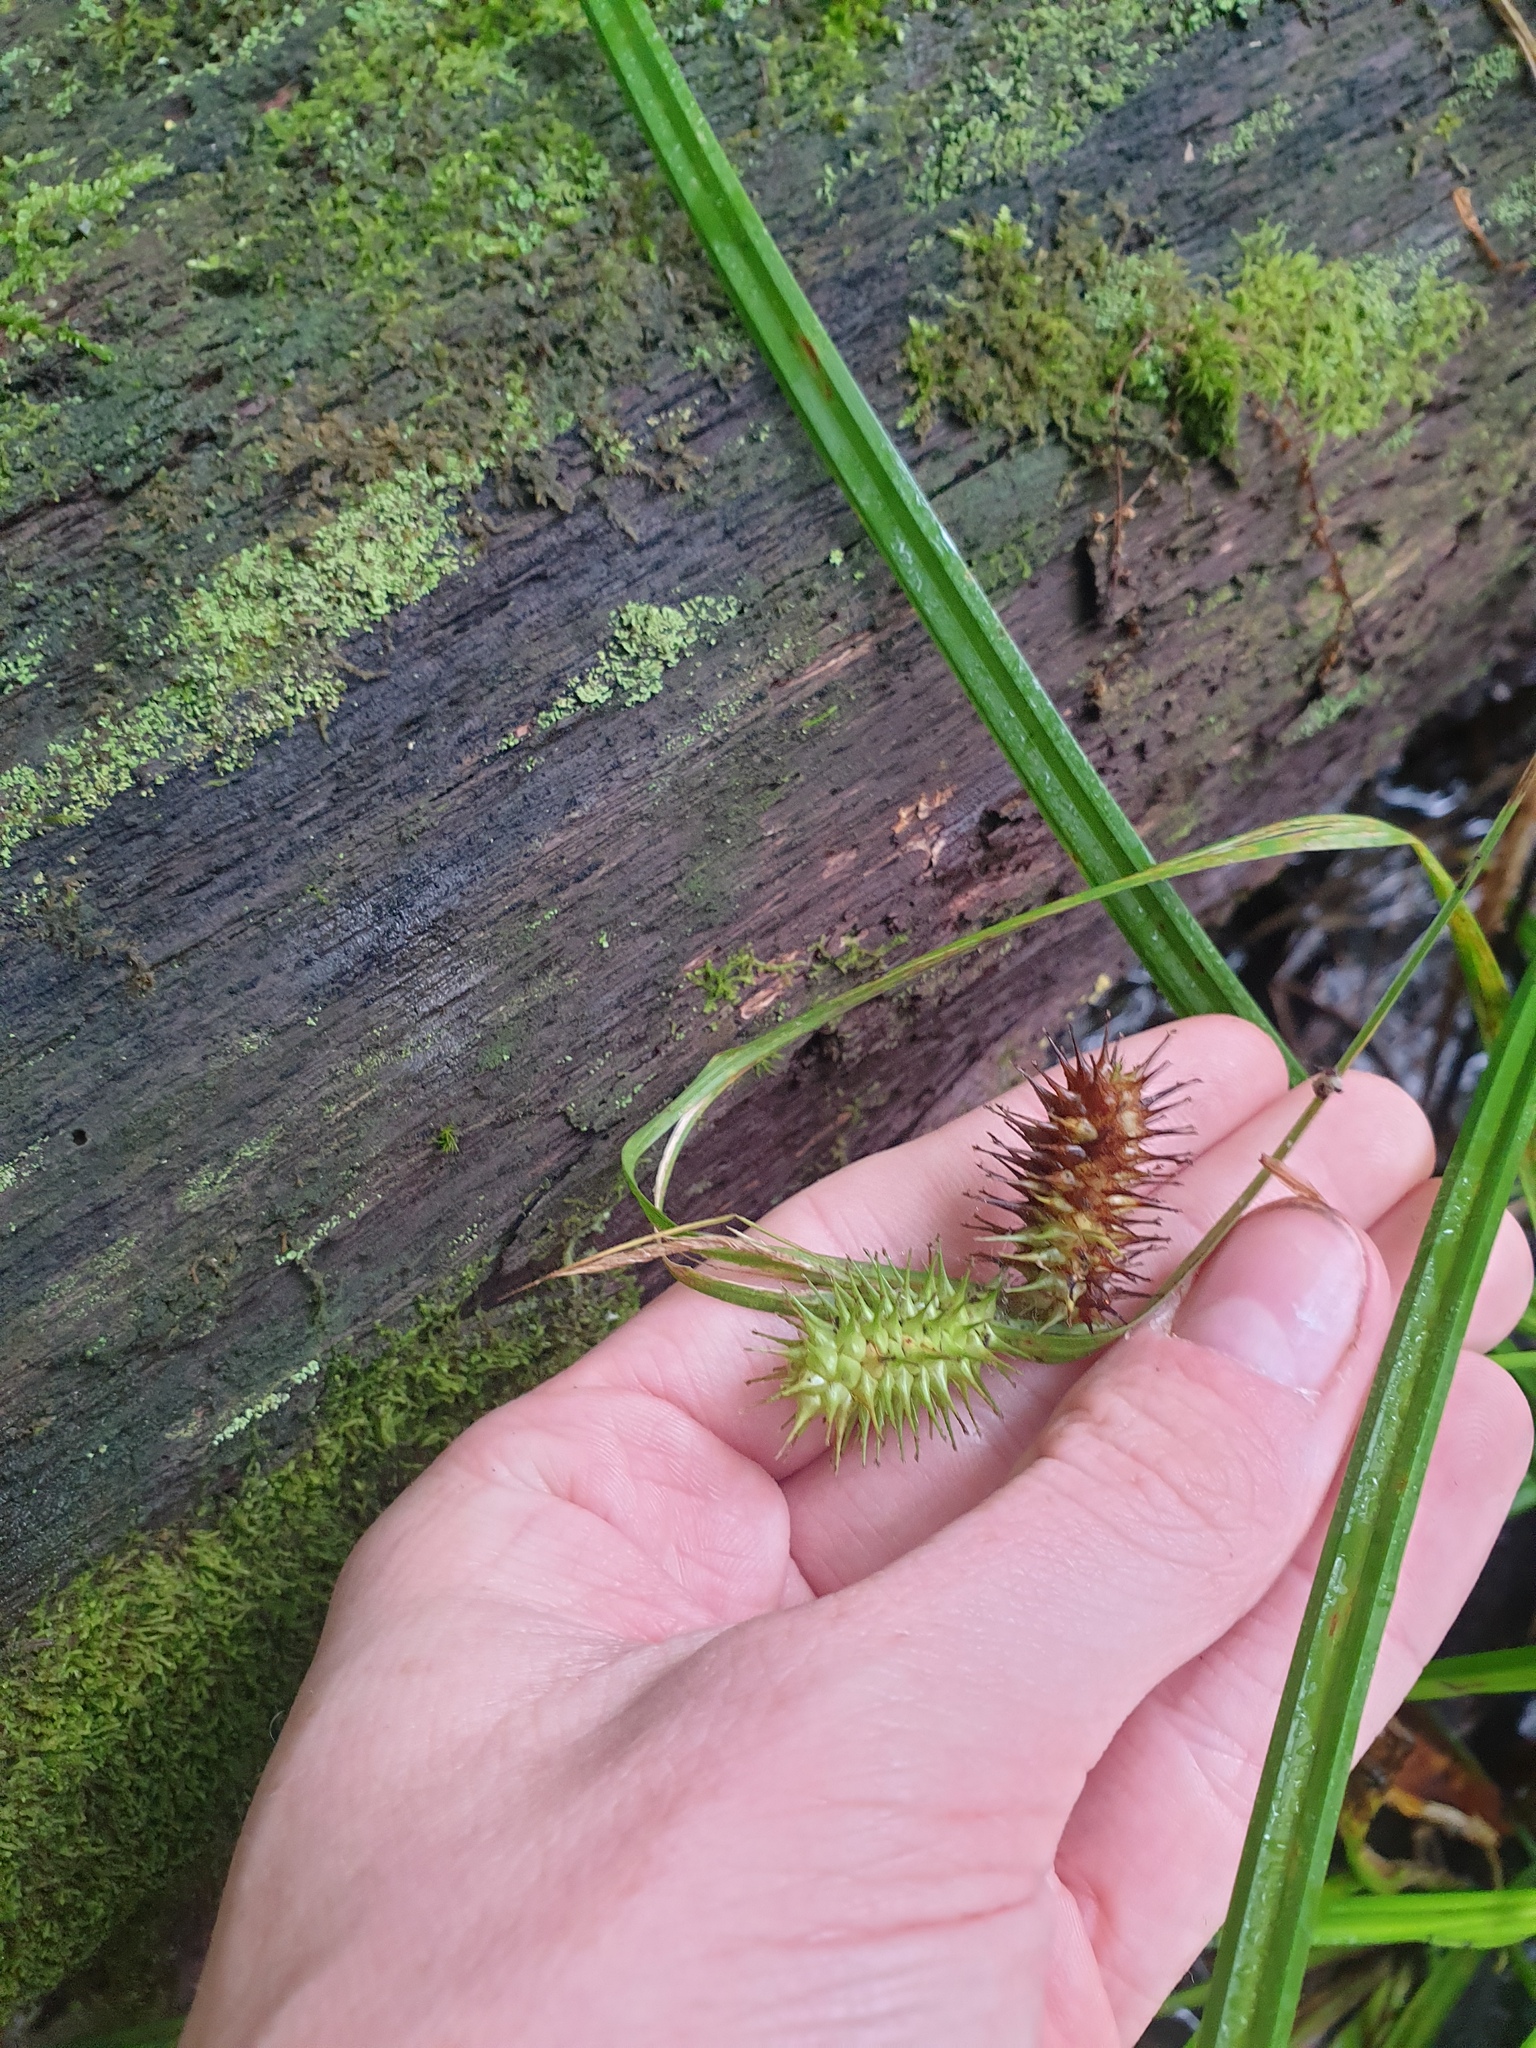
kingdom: Plantae
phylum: Tracheophyta
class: Liliopsida
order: Poales
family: Cyperaceae
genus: Carex
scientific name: Carex lurida
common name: Sallow sedge
